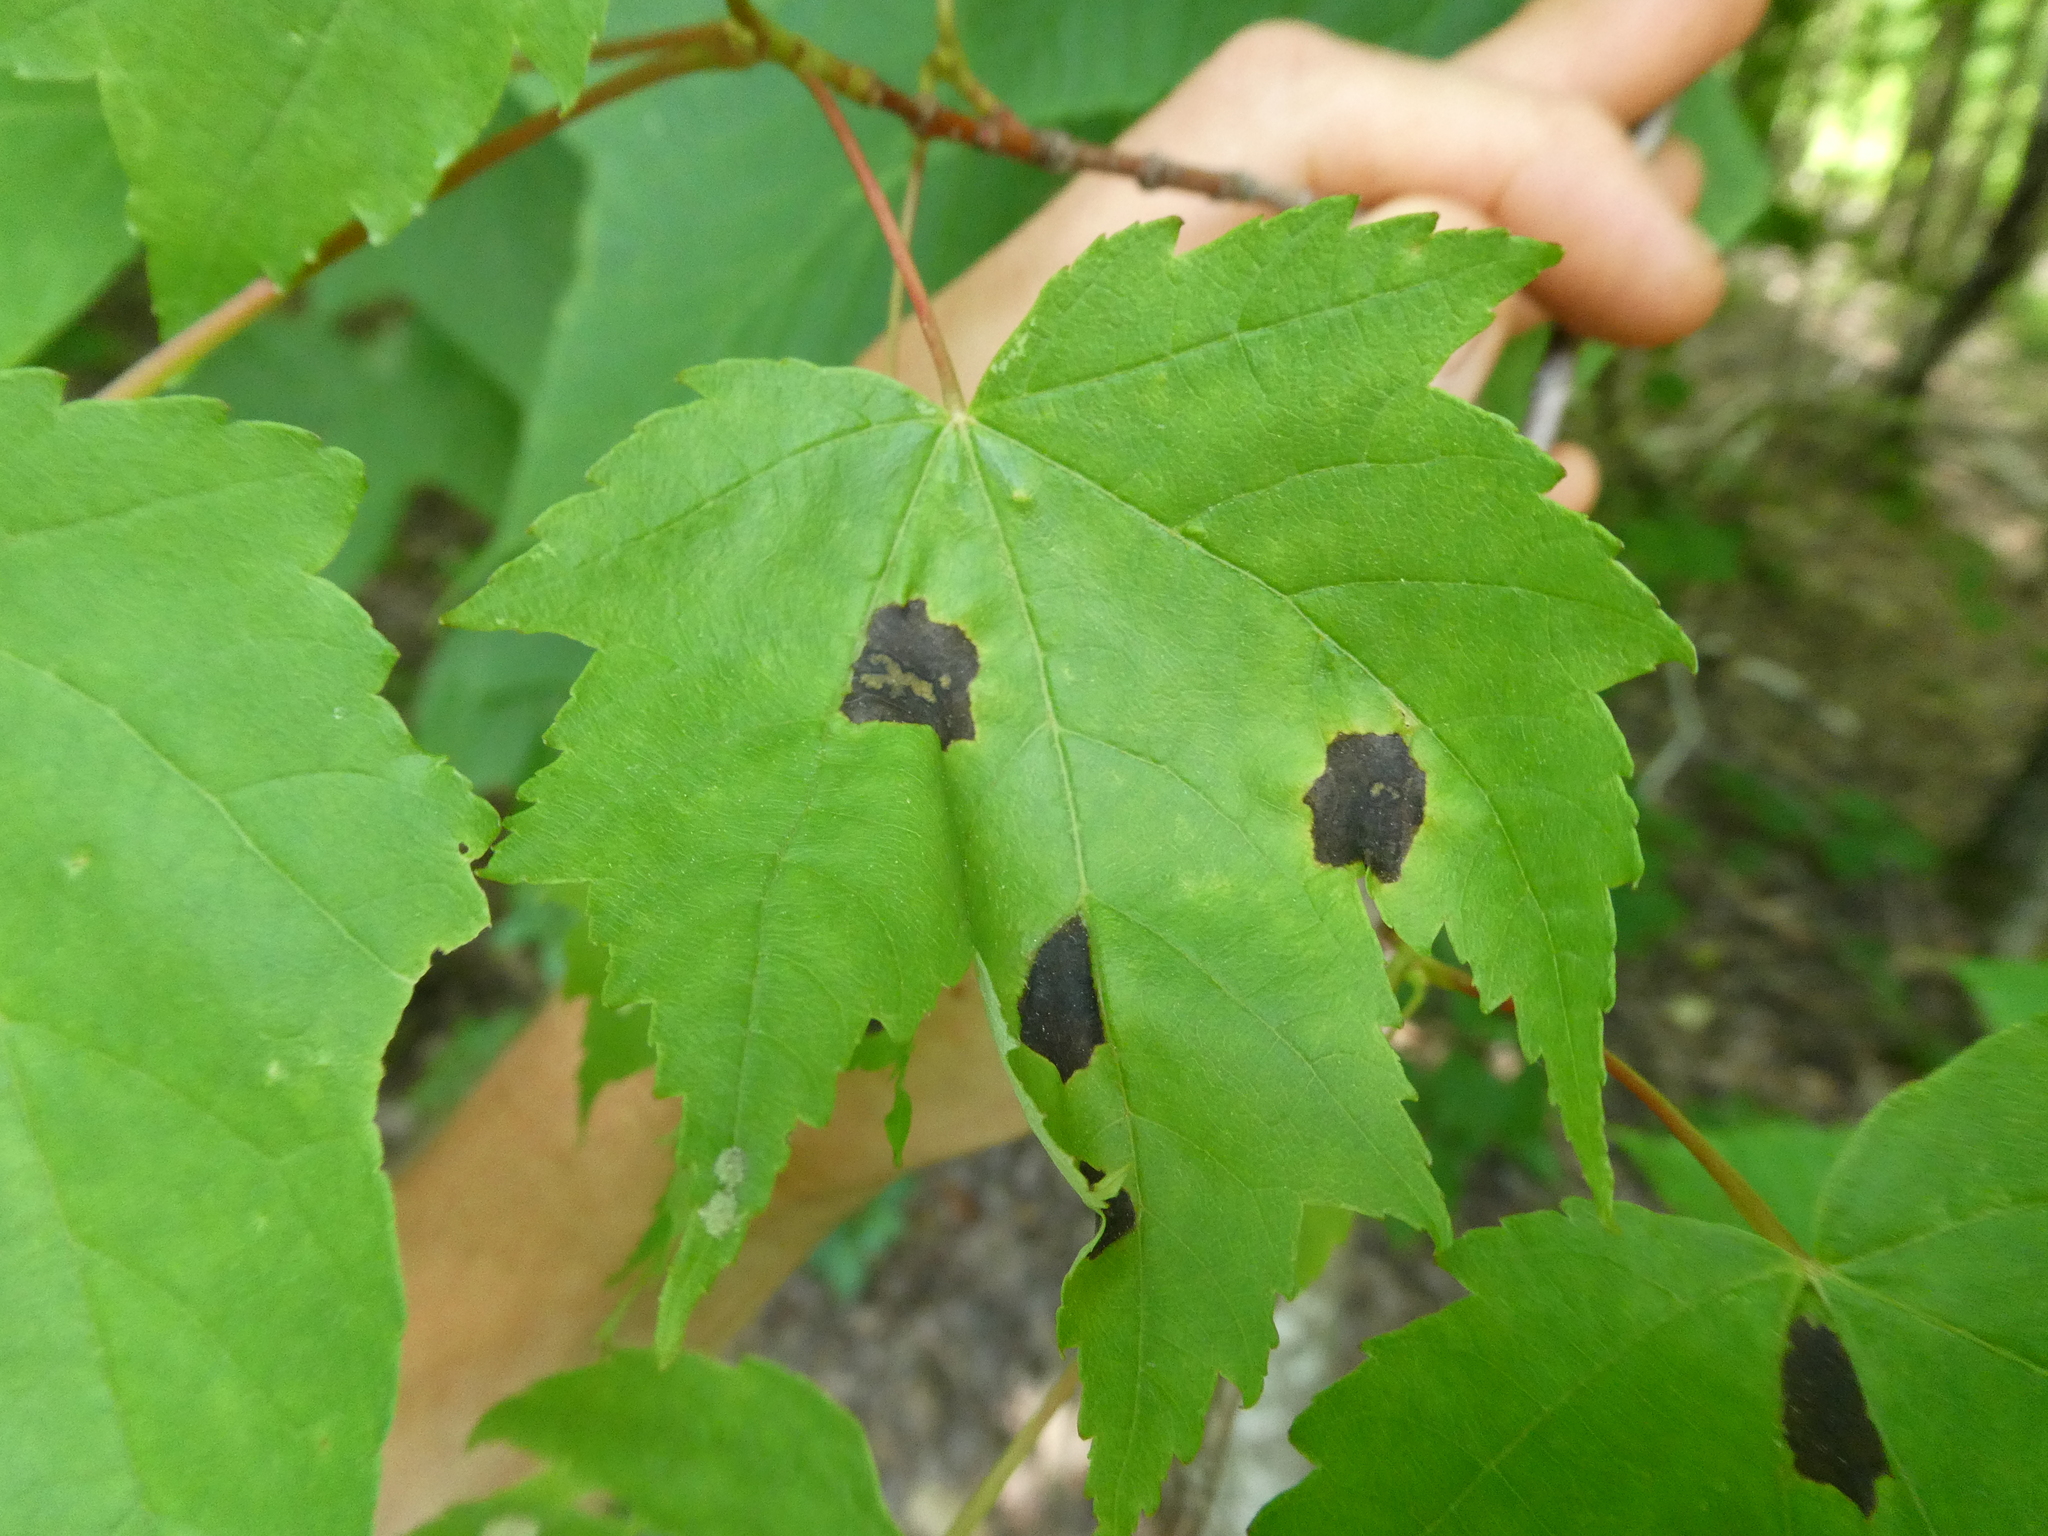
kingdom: Plantae
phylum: Tracheophyta
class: Magnoliopsida
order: Sapindales
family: Sapindaceae
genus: Acer
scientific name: Acer rubrum
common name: Red maple
